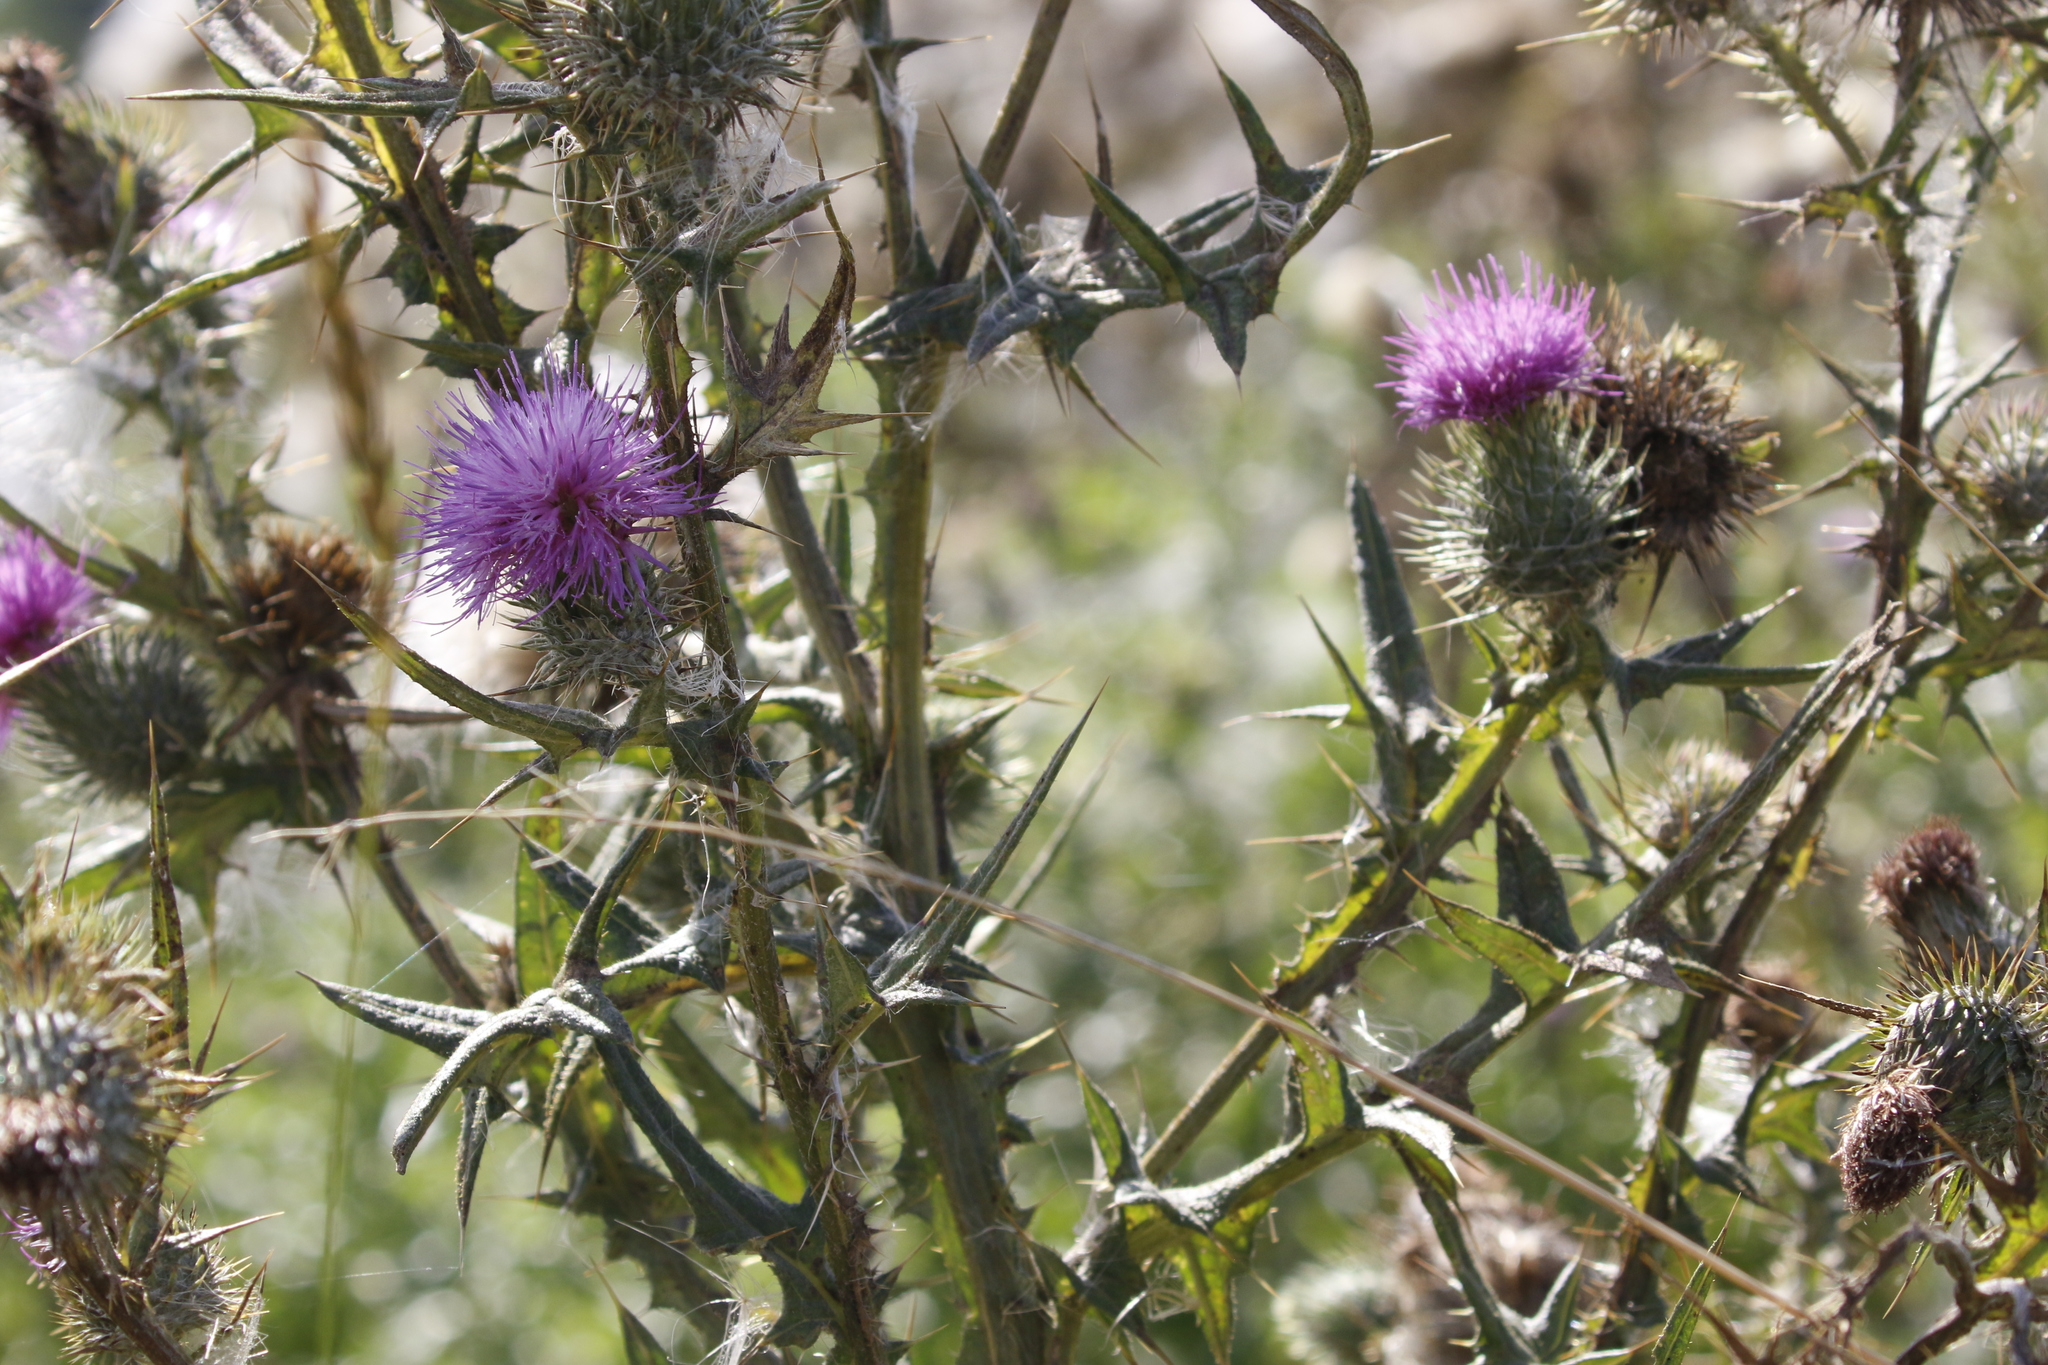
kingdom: Plantae
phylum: Tracheophyta
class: Magnoliopsida
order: Asterales
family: Asteraceae
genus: Cirsium
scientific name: Cirsium vulgare
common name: Bull thistle
